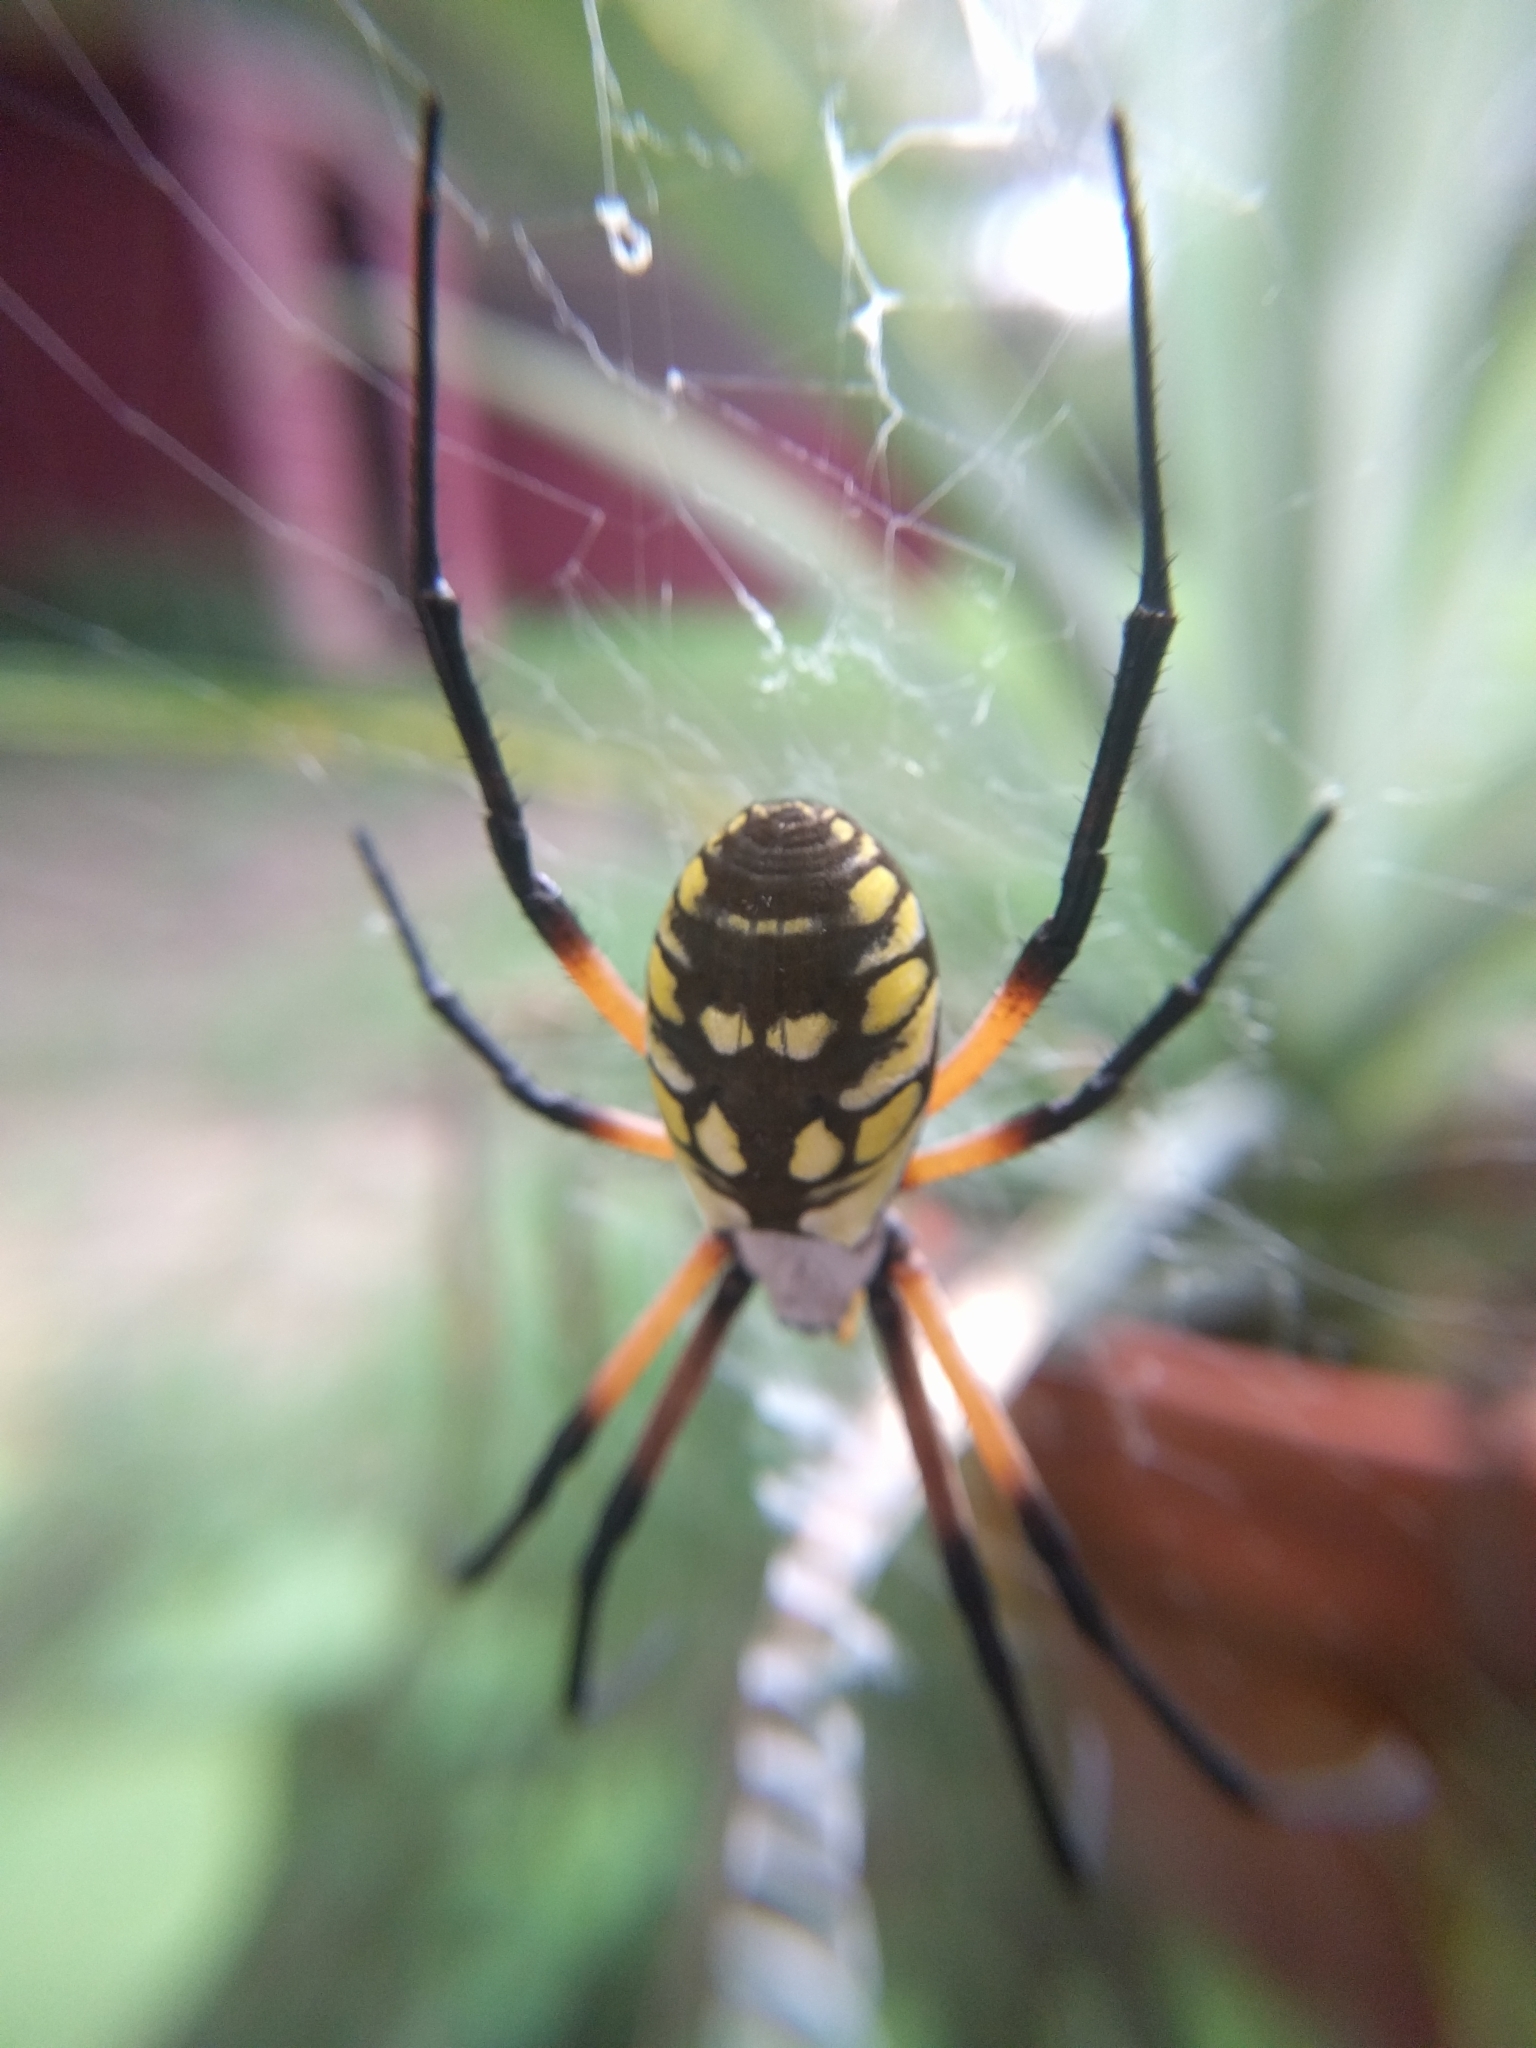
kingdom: Animalia
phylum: Arthropoda
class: Arachnida
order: Araneae
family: Araneidae
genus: Argiope
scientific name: Argiope aurantia
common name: Orb weavers
